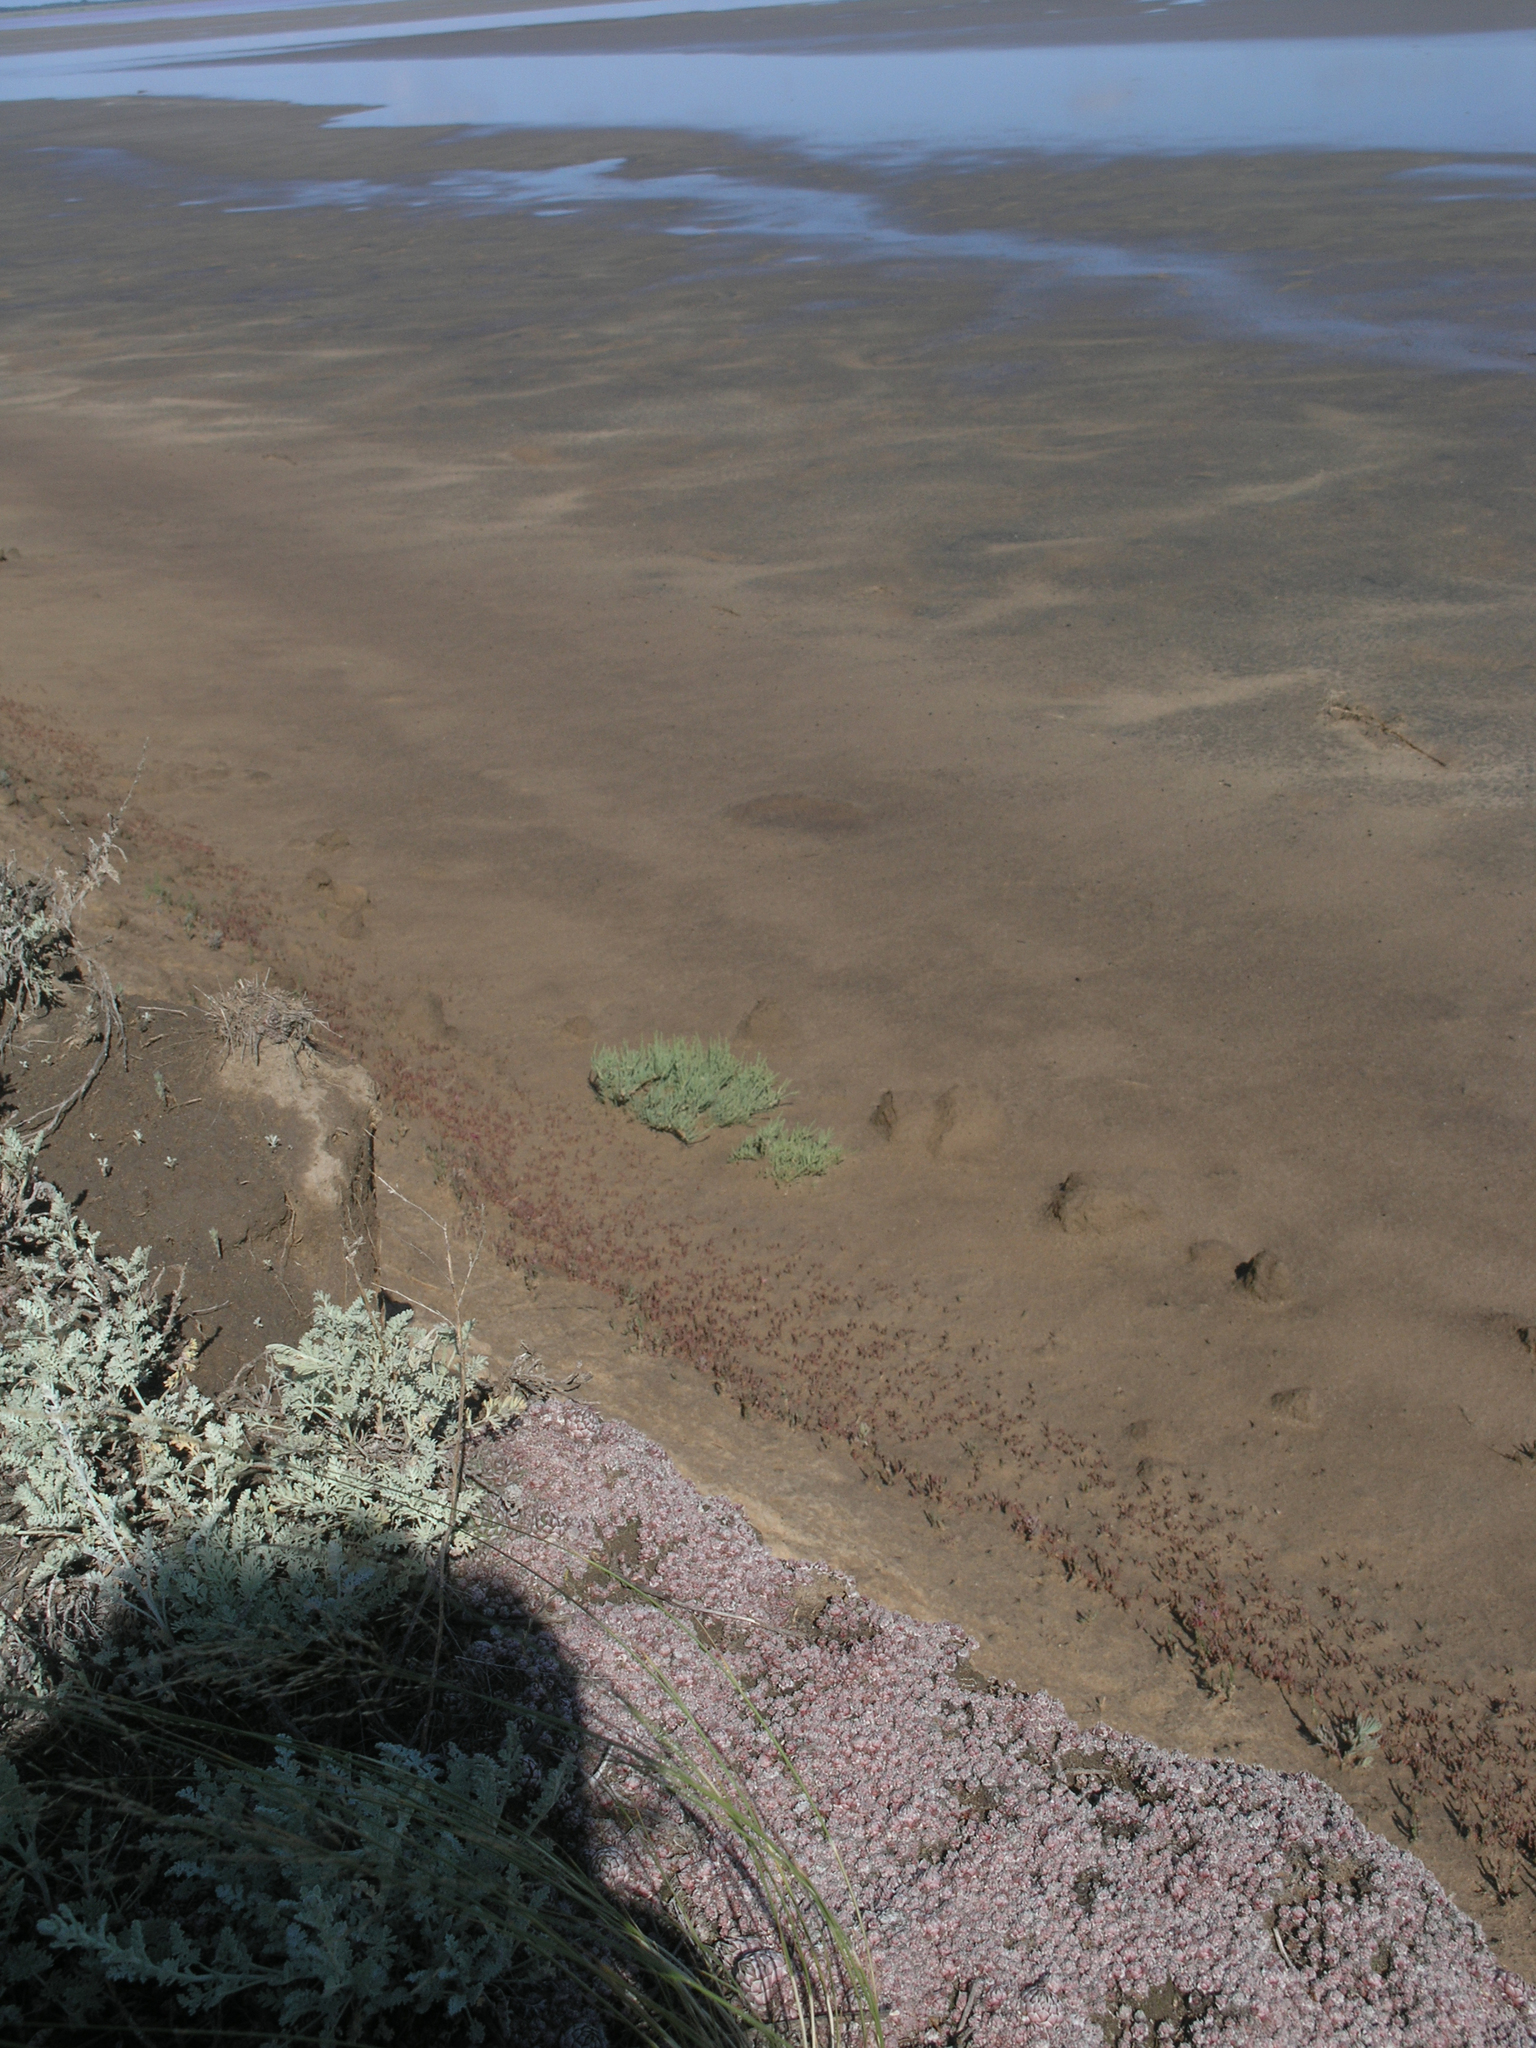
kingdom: Plantae
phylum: Tracheophyta
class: Magnoliopsida
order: Saxifragales
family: Crassulaceae
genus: Orostachys
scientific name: Orostachys spinosa
